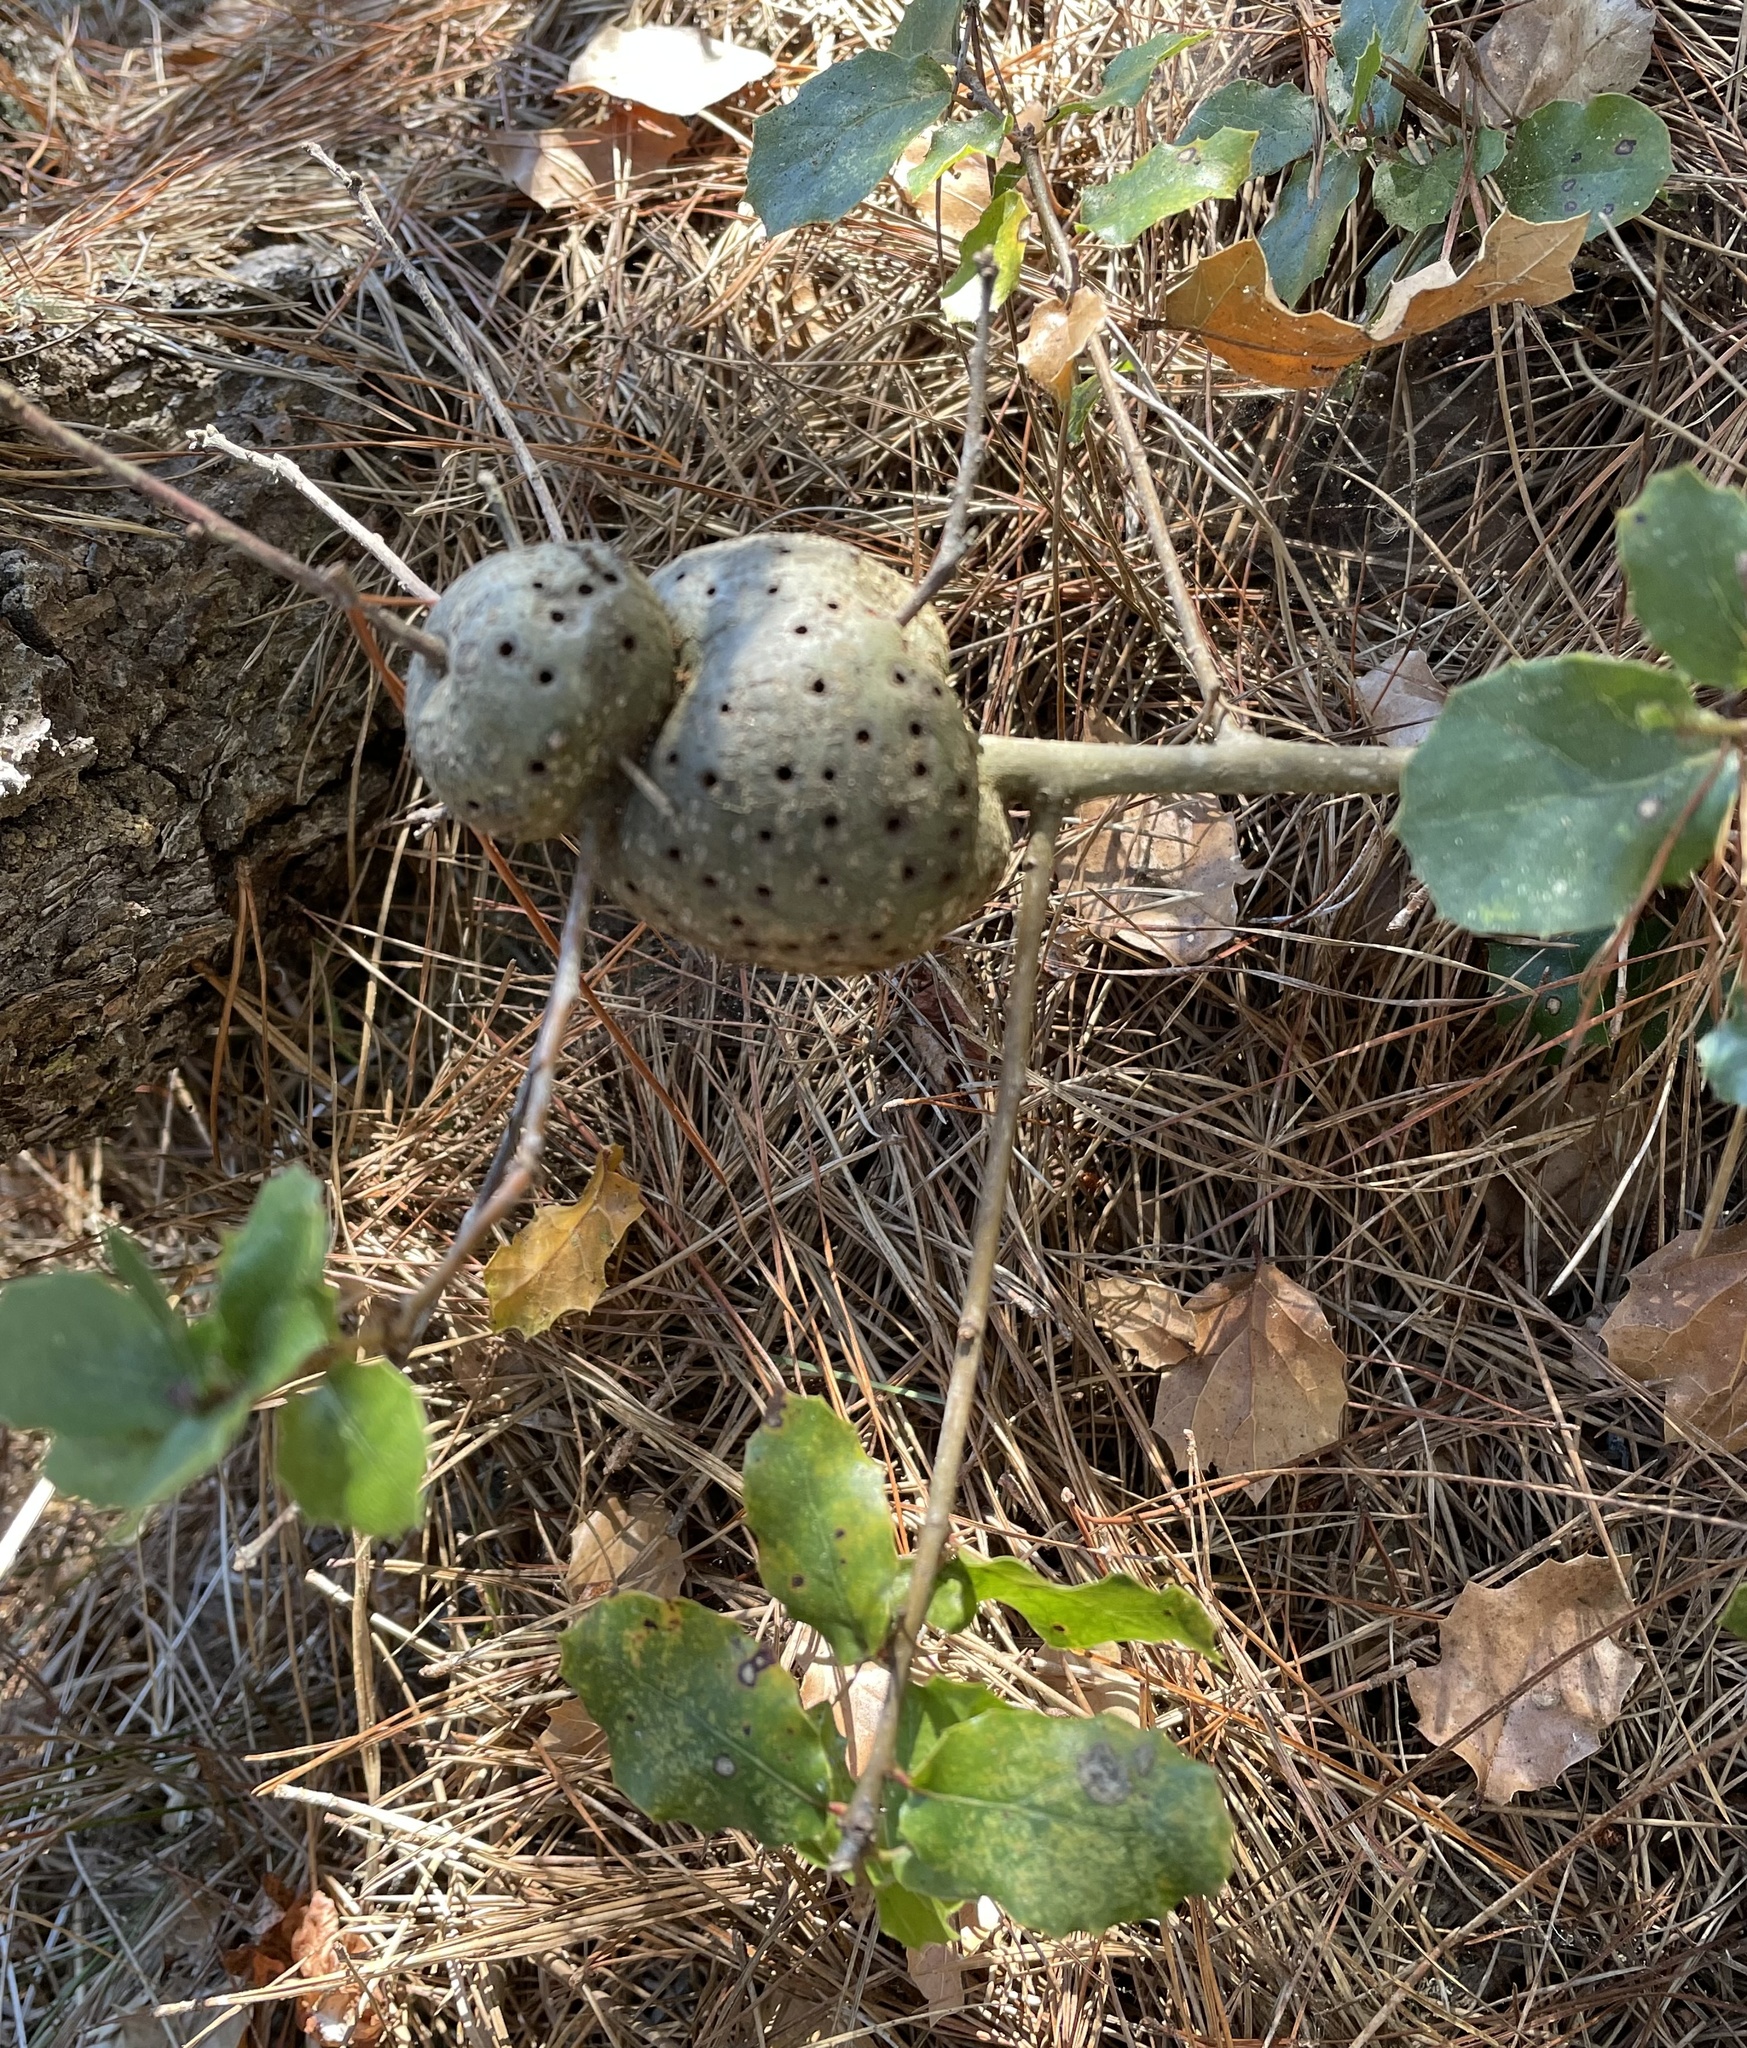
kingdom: Animalia
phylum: Arthropoda
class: Insecta
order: Hymenoptera
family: Cynipidae
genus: Callirhytis
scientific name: Callirhytis
